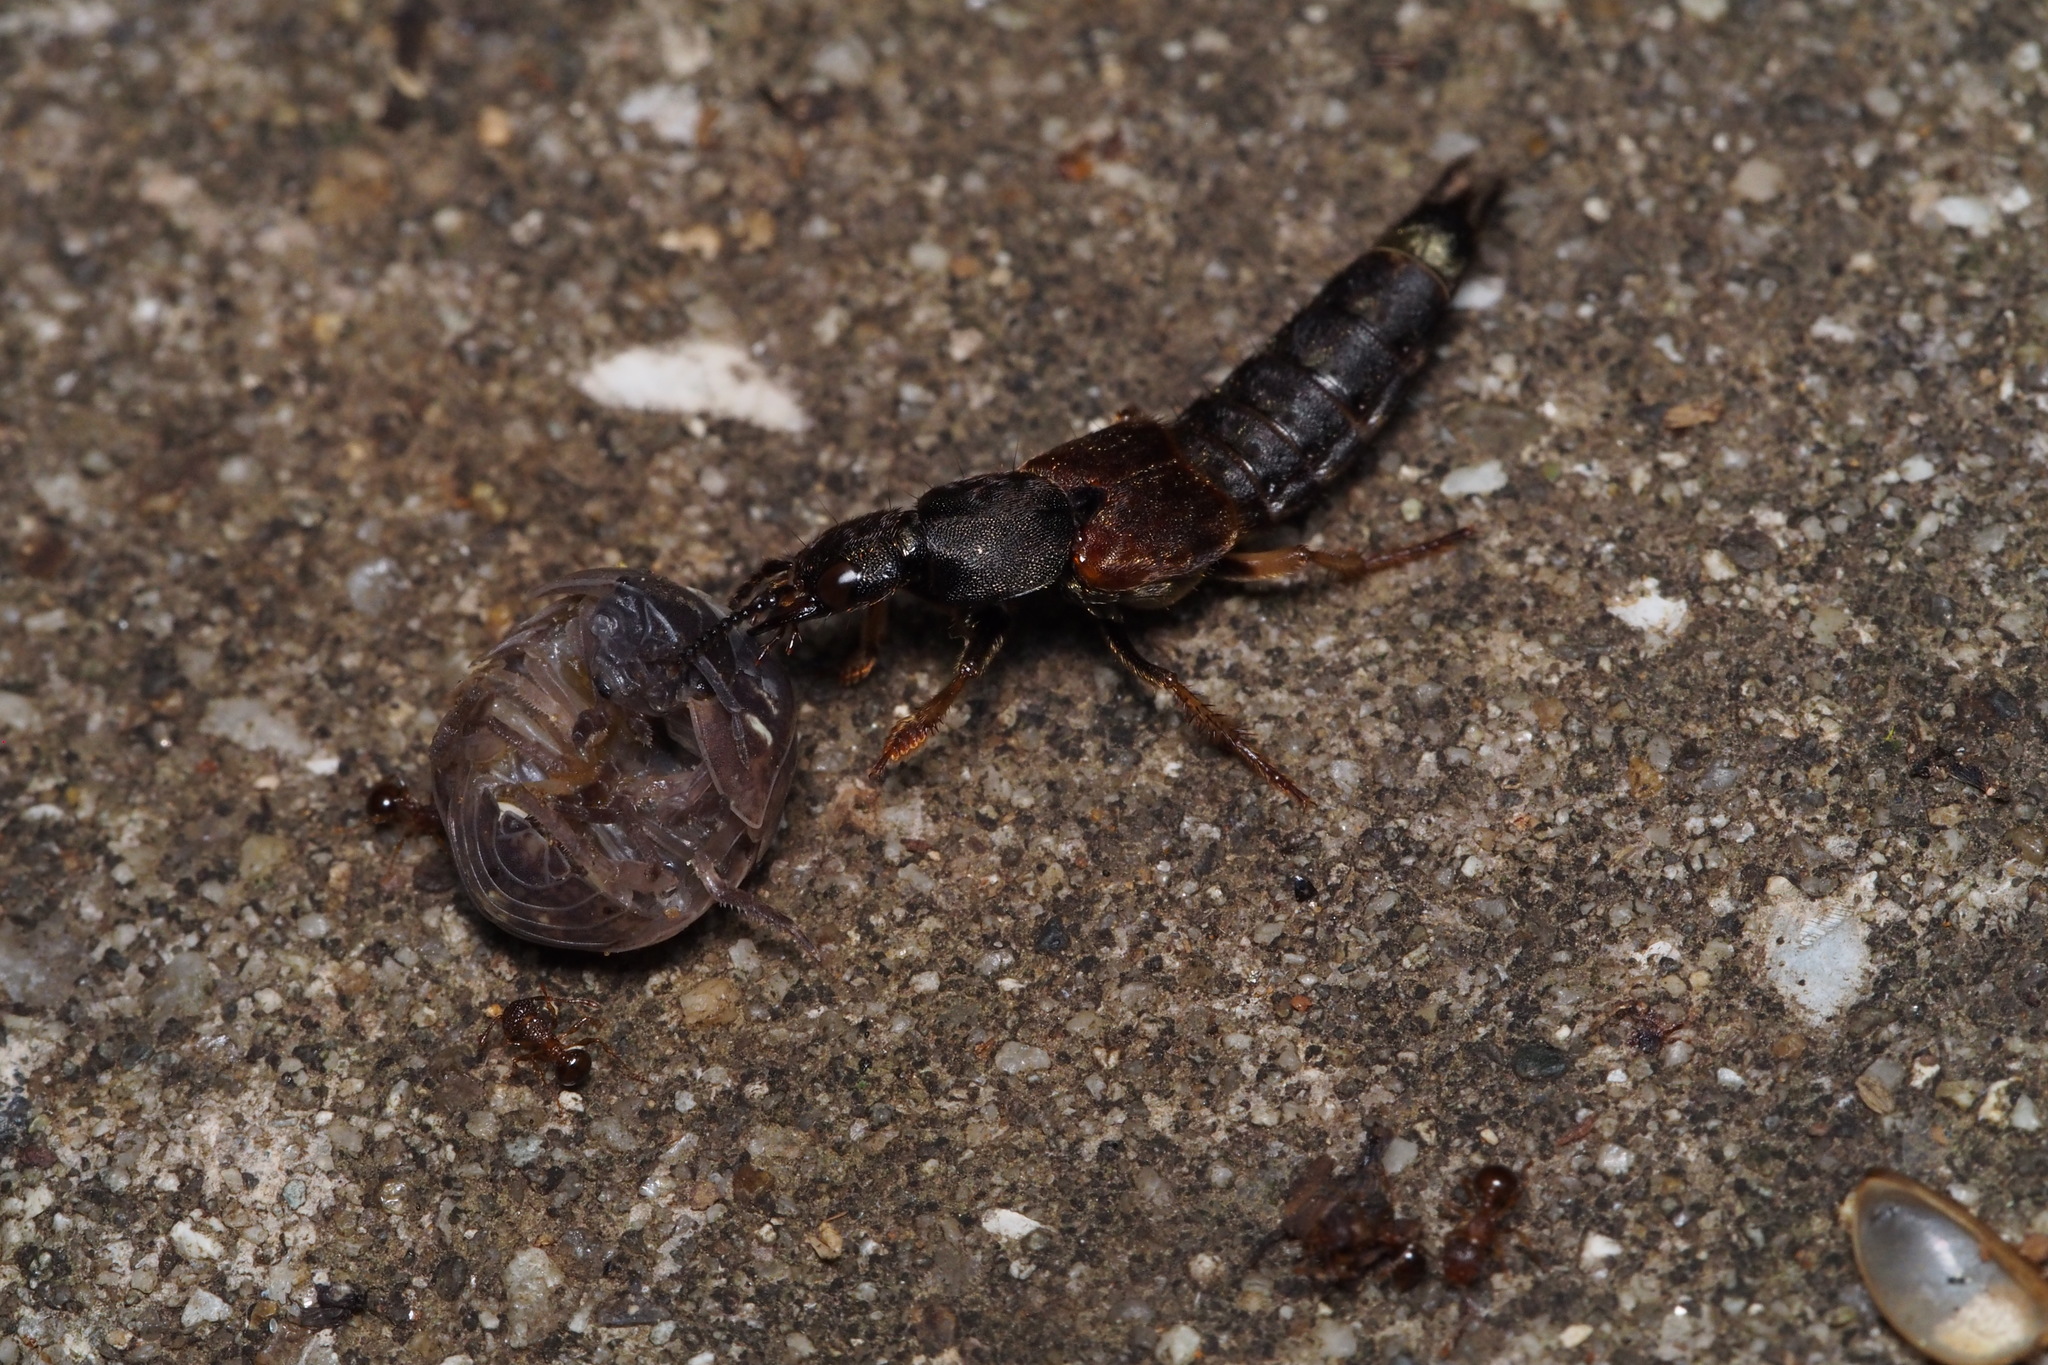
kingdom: Animalia
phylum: Arthropoda
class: Insecta
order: Coleoptera
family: Staphylinidae
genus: Platydracus
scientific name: Platydracus brevicornis
